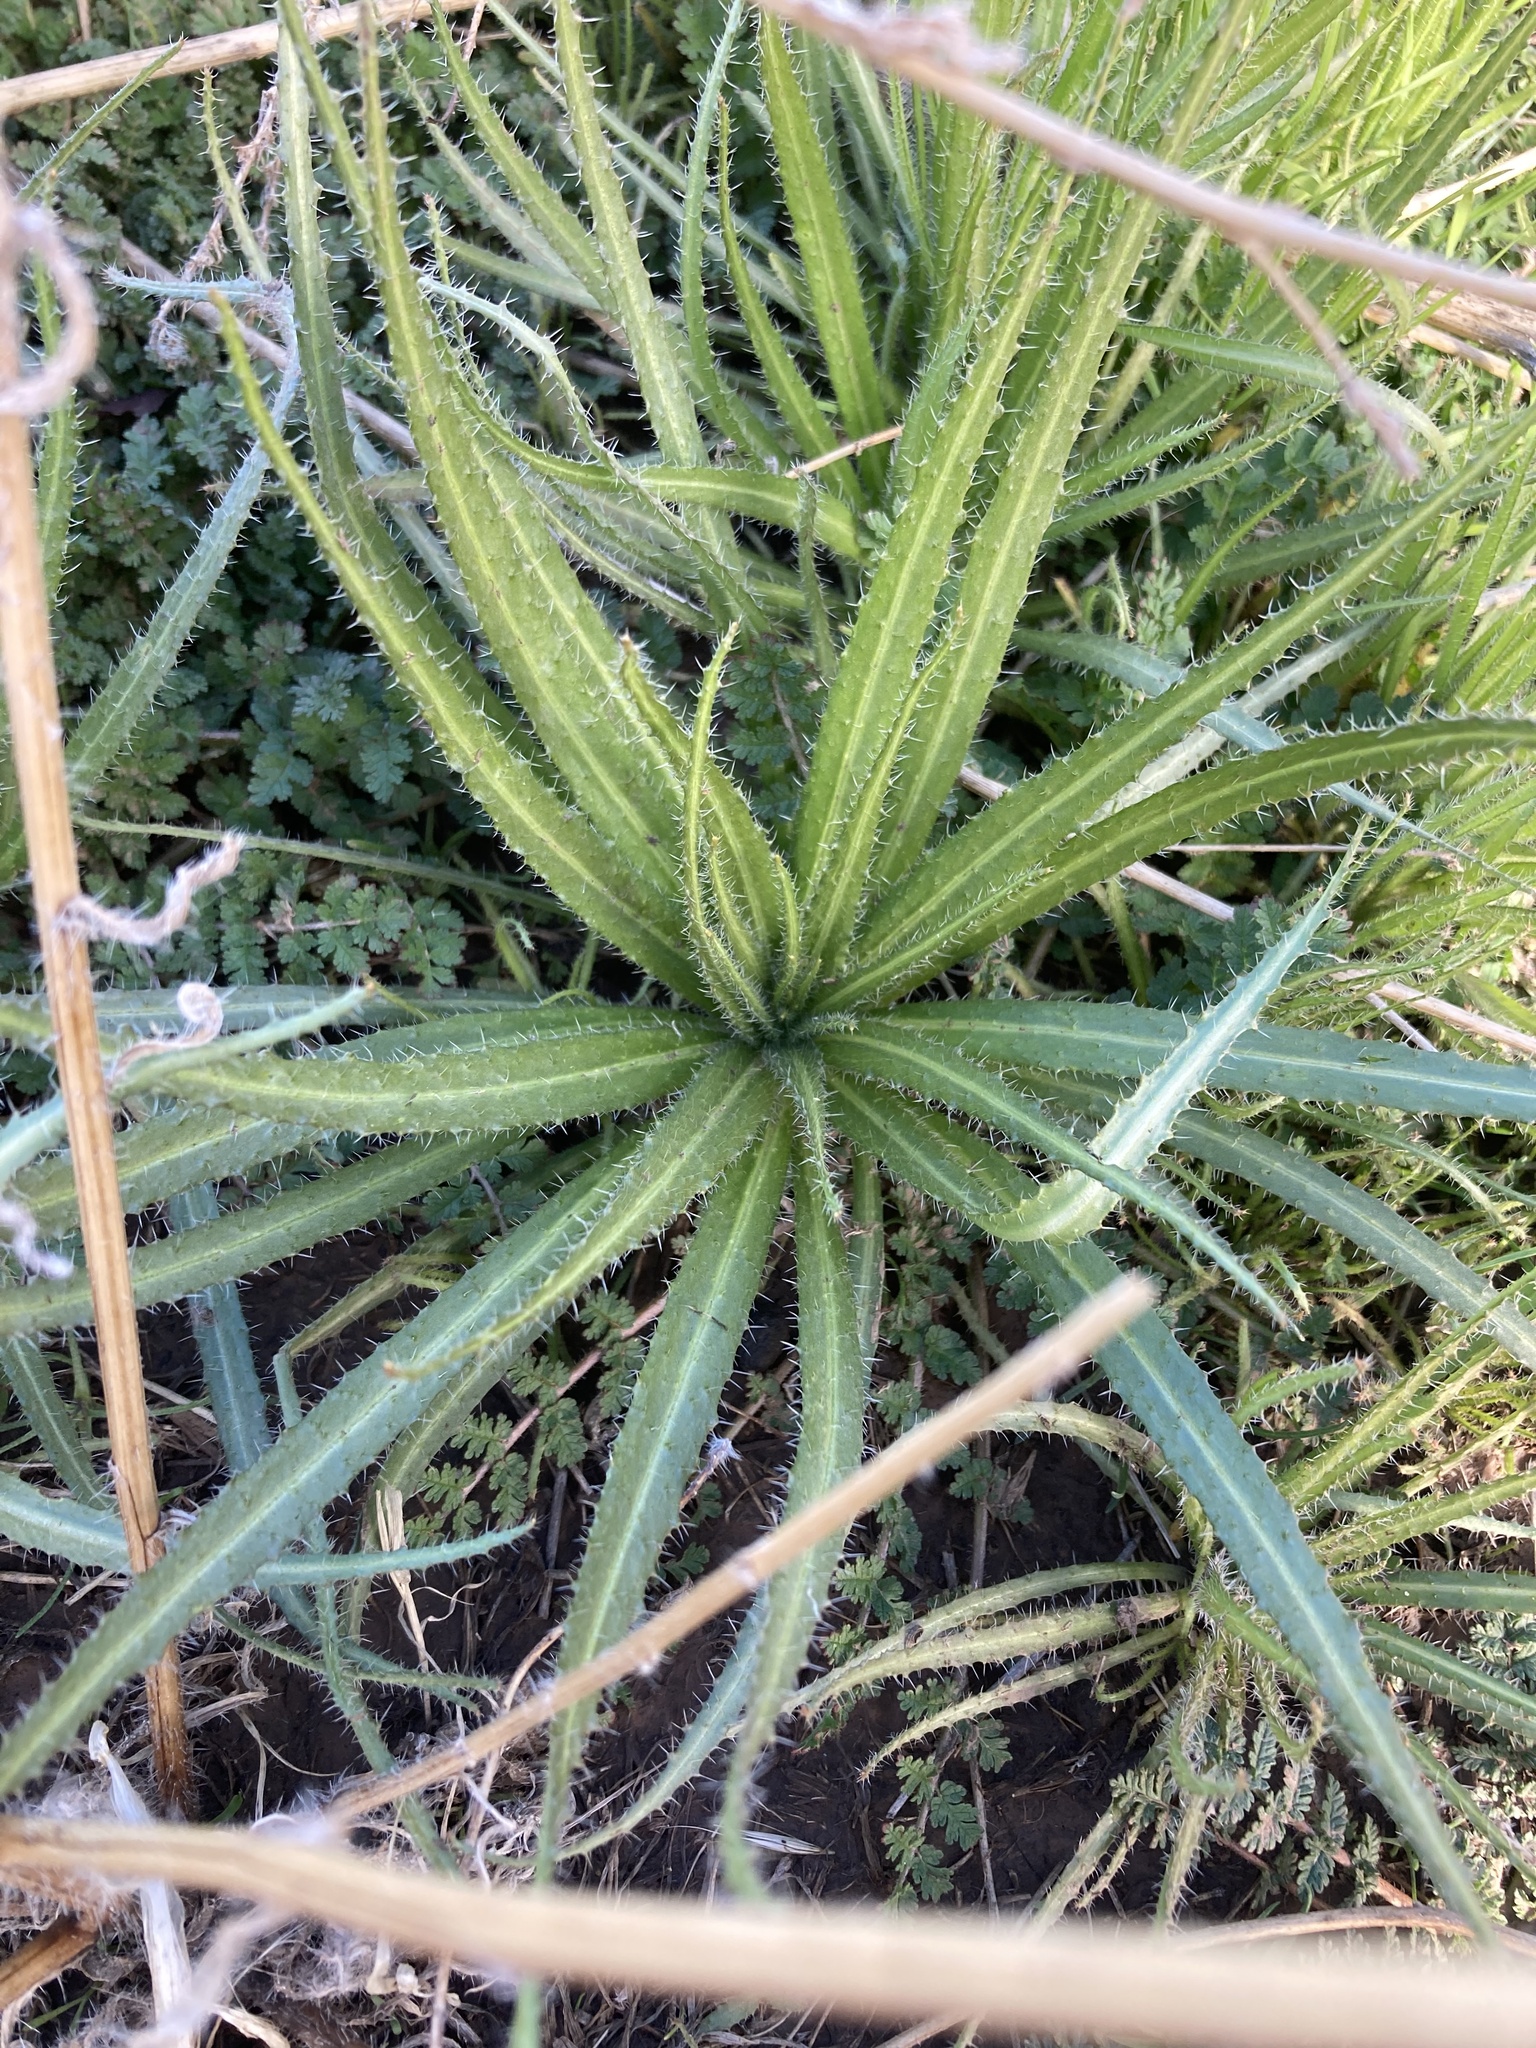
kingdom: Plantae
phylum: Tracheophyta
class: Magnoliopsida
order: Boraginales
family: Boraginaceae
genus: Amsinckia
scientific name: Amsinckia calycina
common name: Hairy fiddleneck
